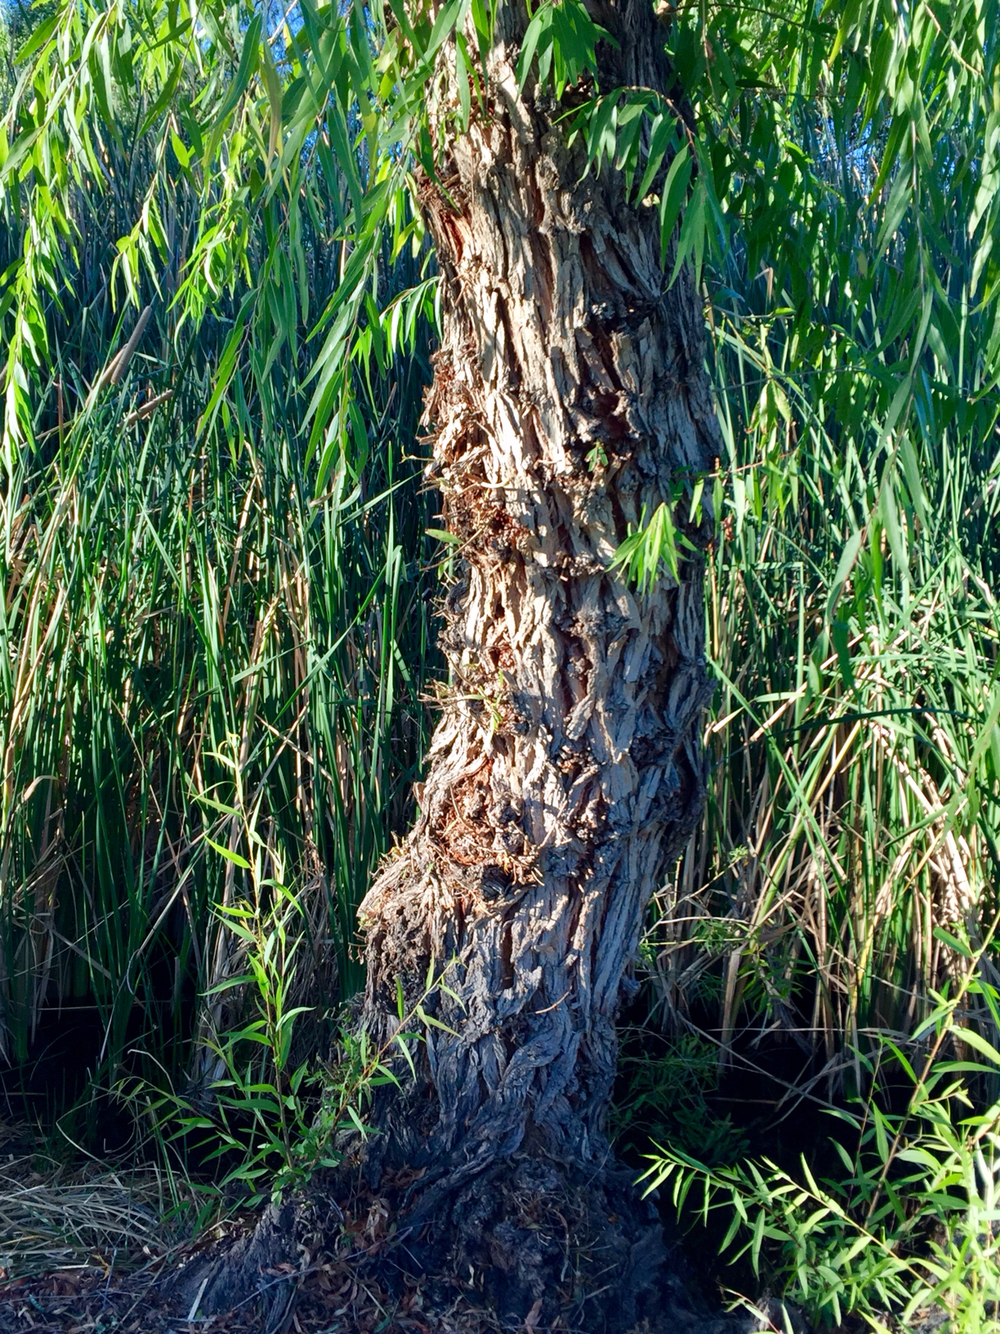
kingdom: Plantae
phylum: Tracheophyta
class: Magnoliopsida
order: Malpighiales
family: Salicaceae
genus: Salix
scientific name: Salix gooddingii
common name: Goodding's willow
